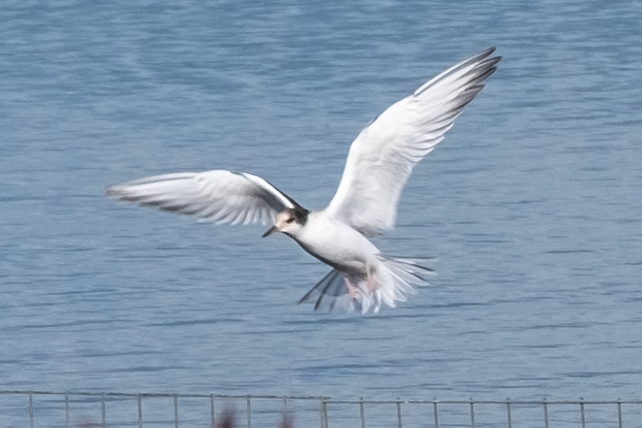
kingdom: Animalia
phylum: Chordata
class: Aves
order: Charadriiformes
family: Laridae
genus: Sterna
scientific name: Sterna hirundo
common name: Common tern
